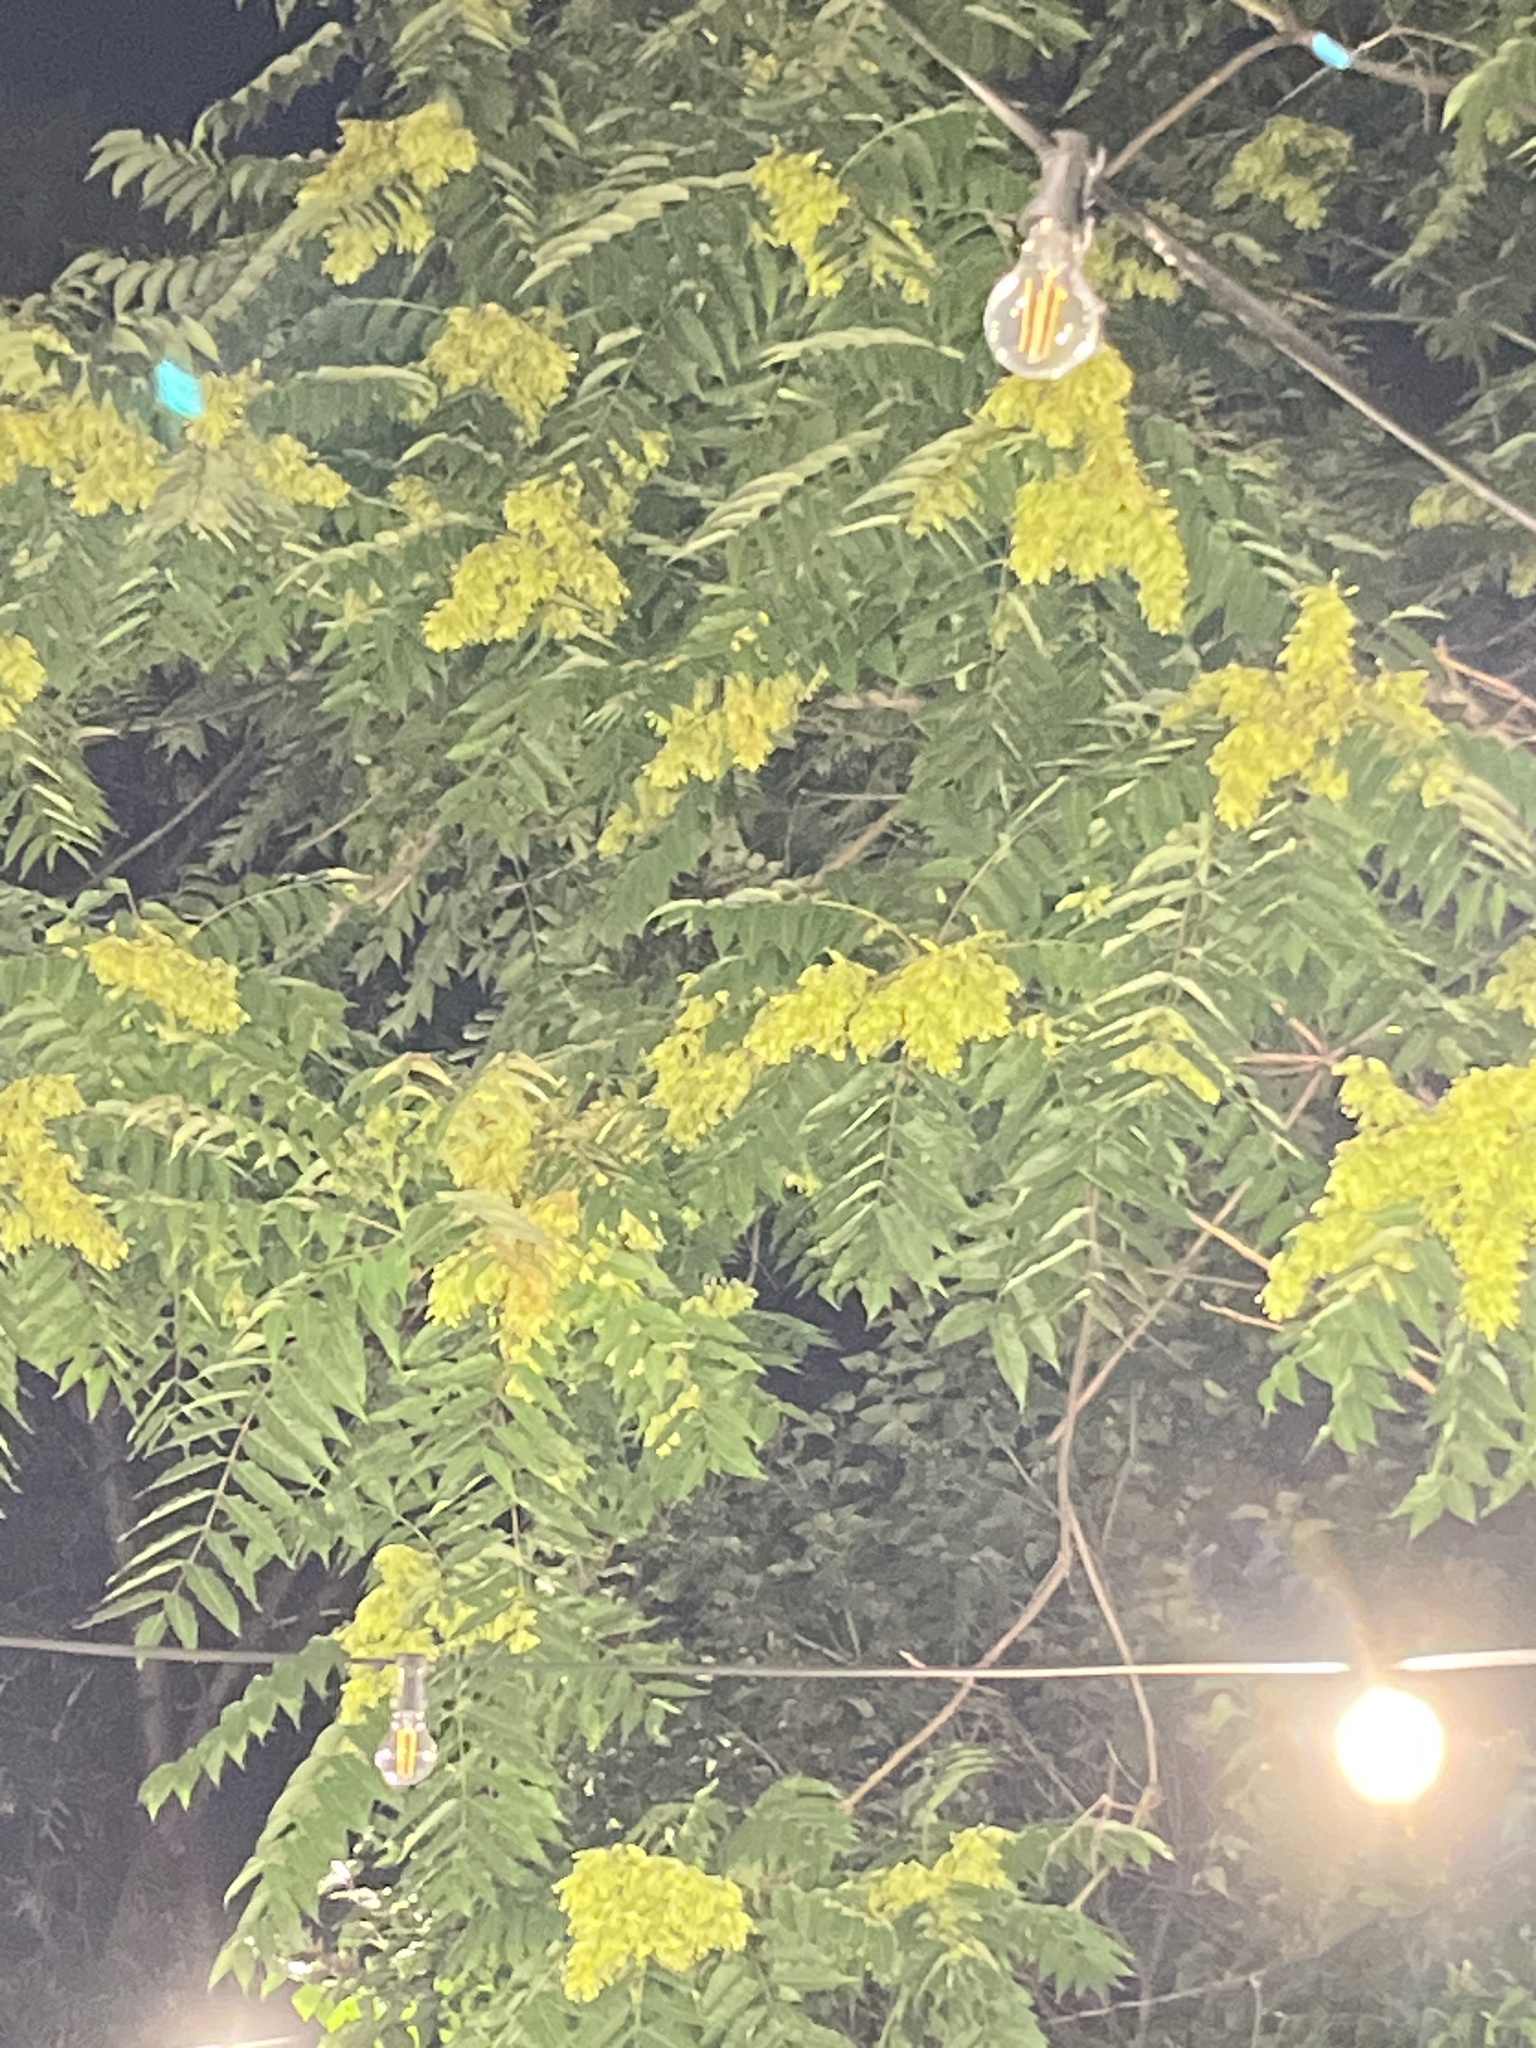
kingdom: Plantae
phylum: Tracheophyta
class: Magnoliopsida
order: Sapindales
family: Sapindaceae
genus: Koelreuteria
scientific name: Koelreuteria paniculata
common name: Pride-of-india
